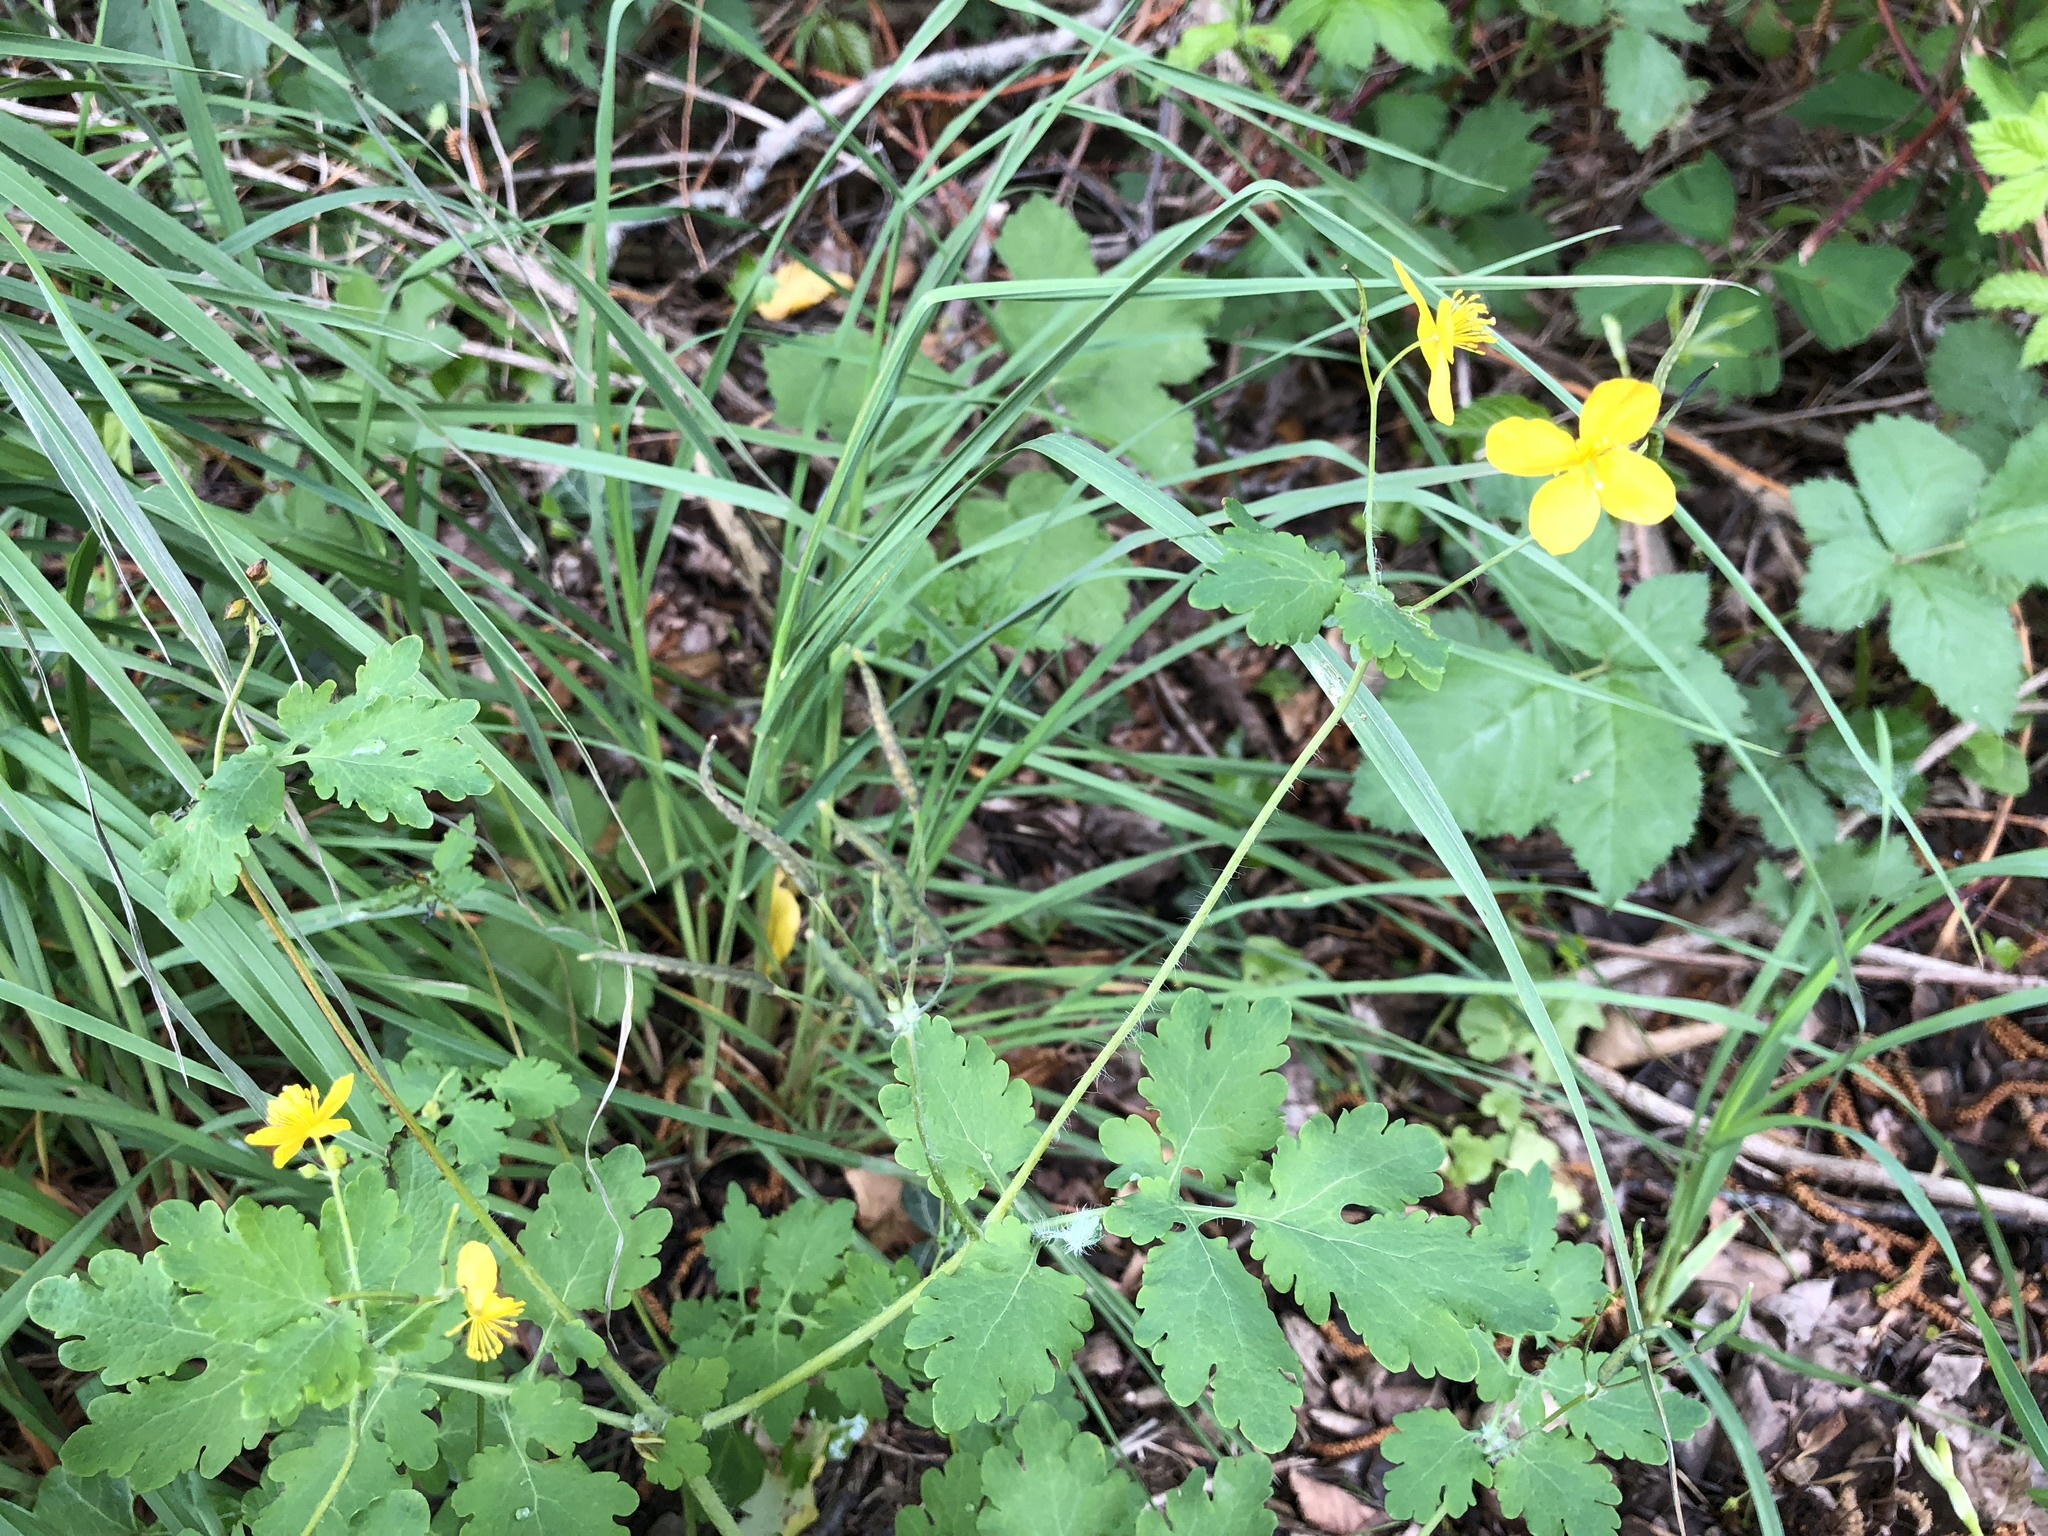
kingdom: Plantae
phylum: Tracheophyta
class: Magnoliopsida
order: Ranunculales
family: Papaveraceae
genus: Chelidonium
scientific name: Chelidonium majus
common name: Greater celandine
